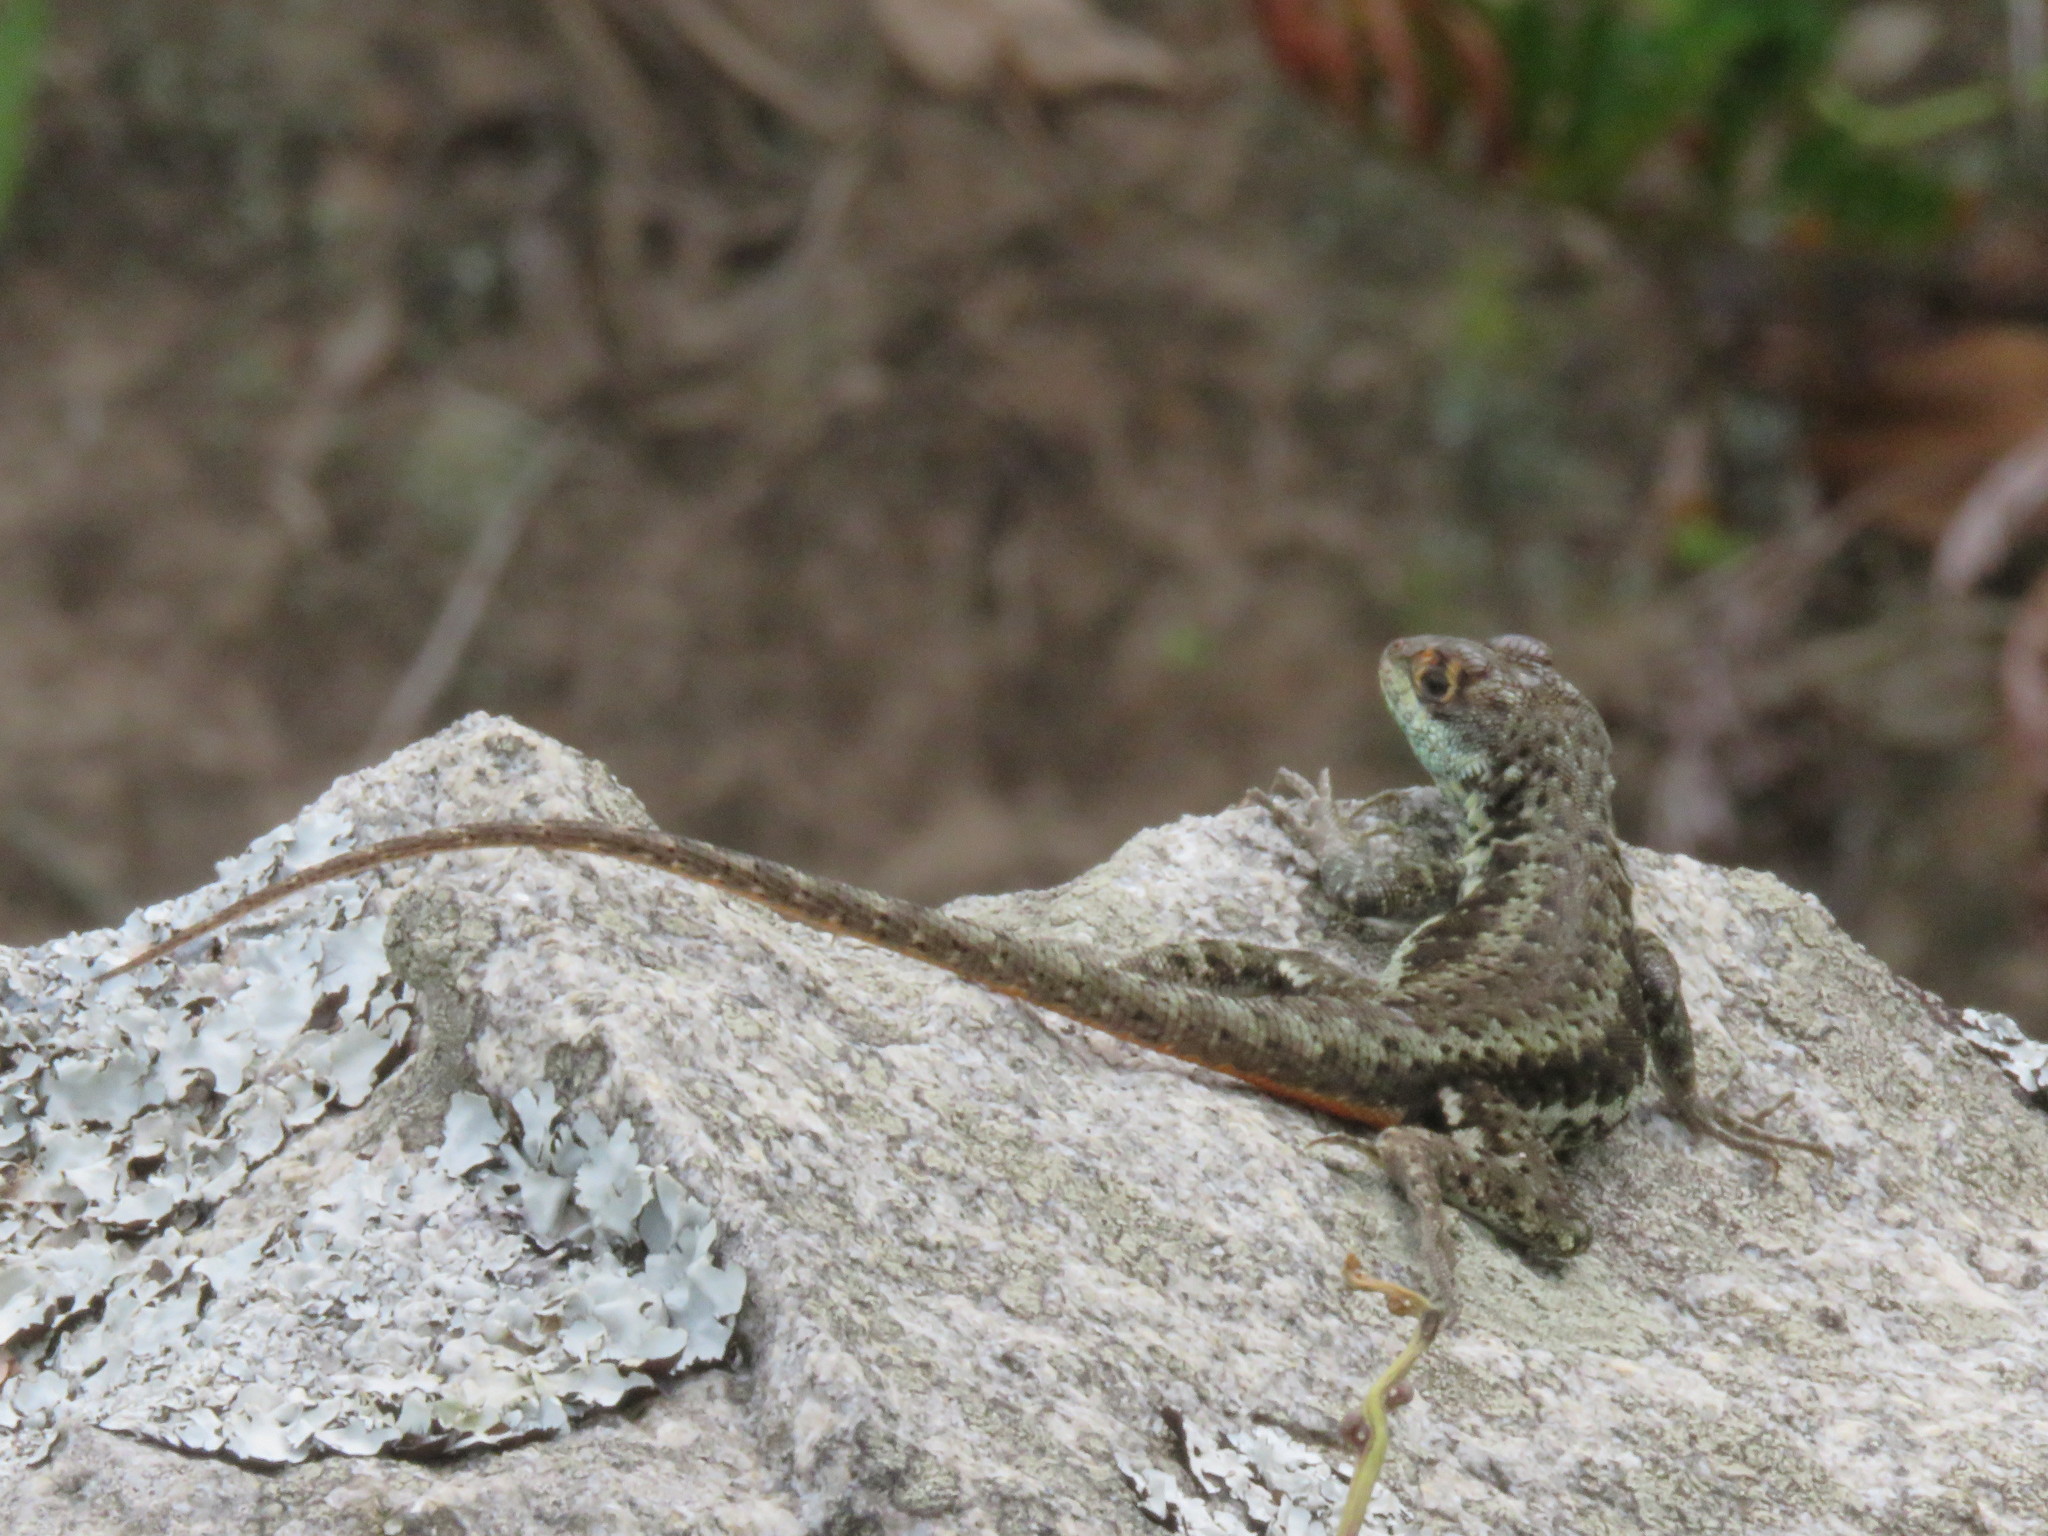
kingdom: Animalia
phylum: Chordata
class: Squamata
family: Tropiduridae
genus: Tropidurus
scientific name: Tropidurus imbituba
